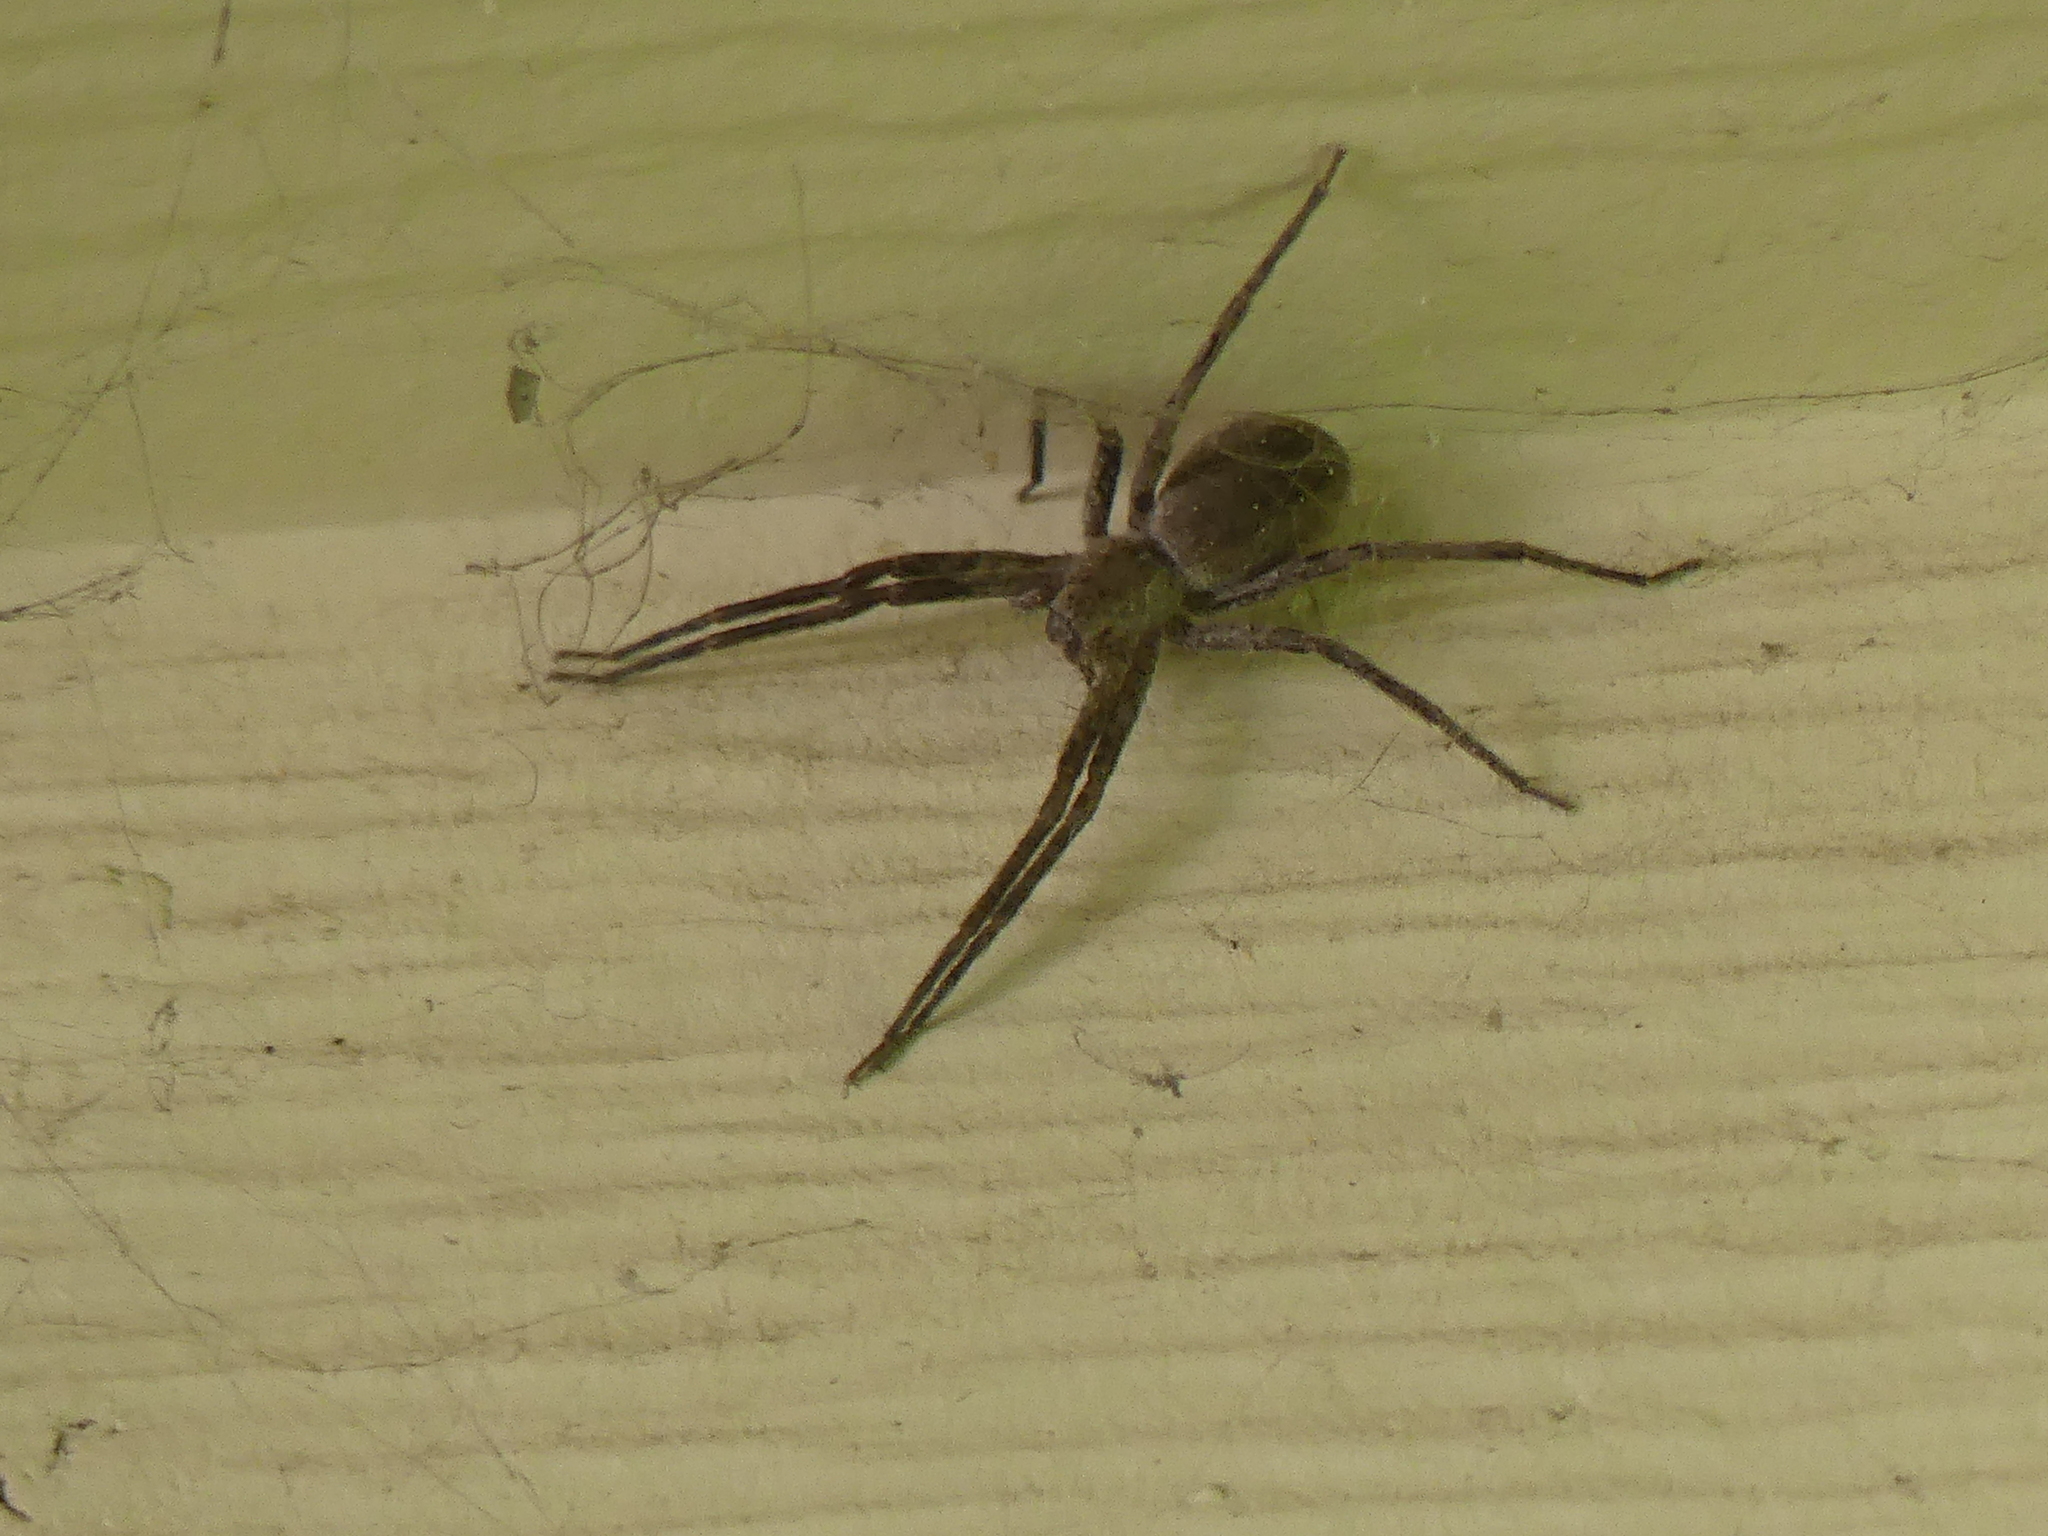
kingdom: Animalia
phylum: Arthropoda
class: Arachnida
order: Araneae
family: Pisauridae
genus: Pisaurina
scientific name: Pisaurina mira
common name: American nursery web spider
